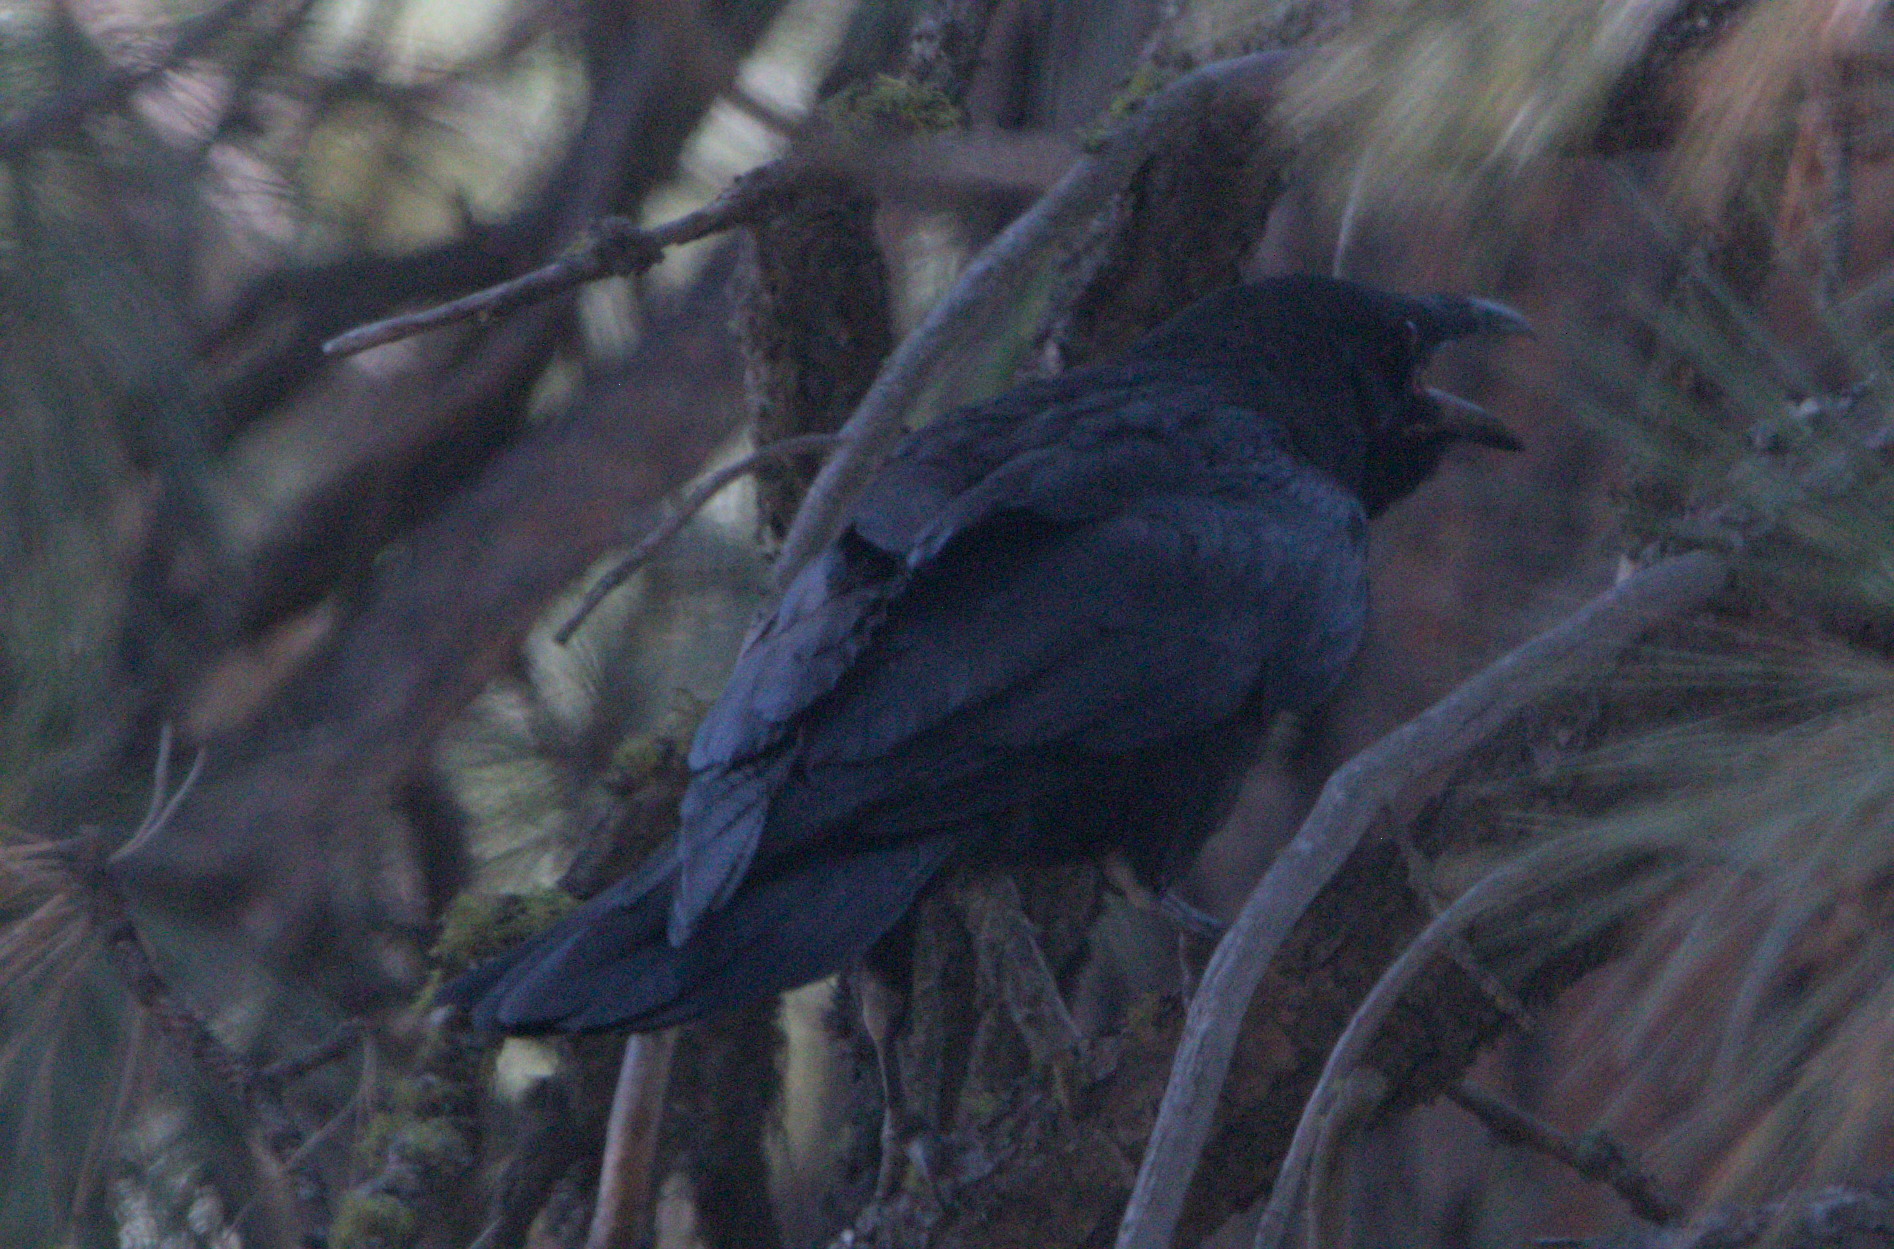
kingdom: Animalia
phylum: Chordata
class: Aves
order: Passeriformes
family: Corvidae
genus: Corvus
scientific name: Corvus corax
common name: Common raven
